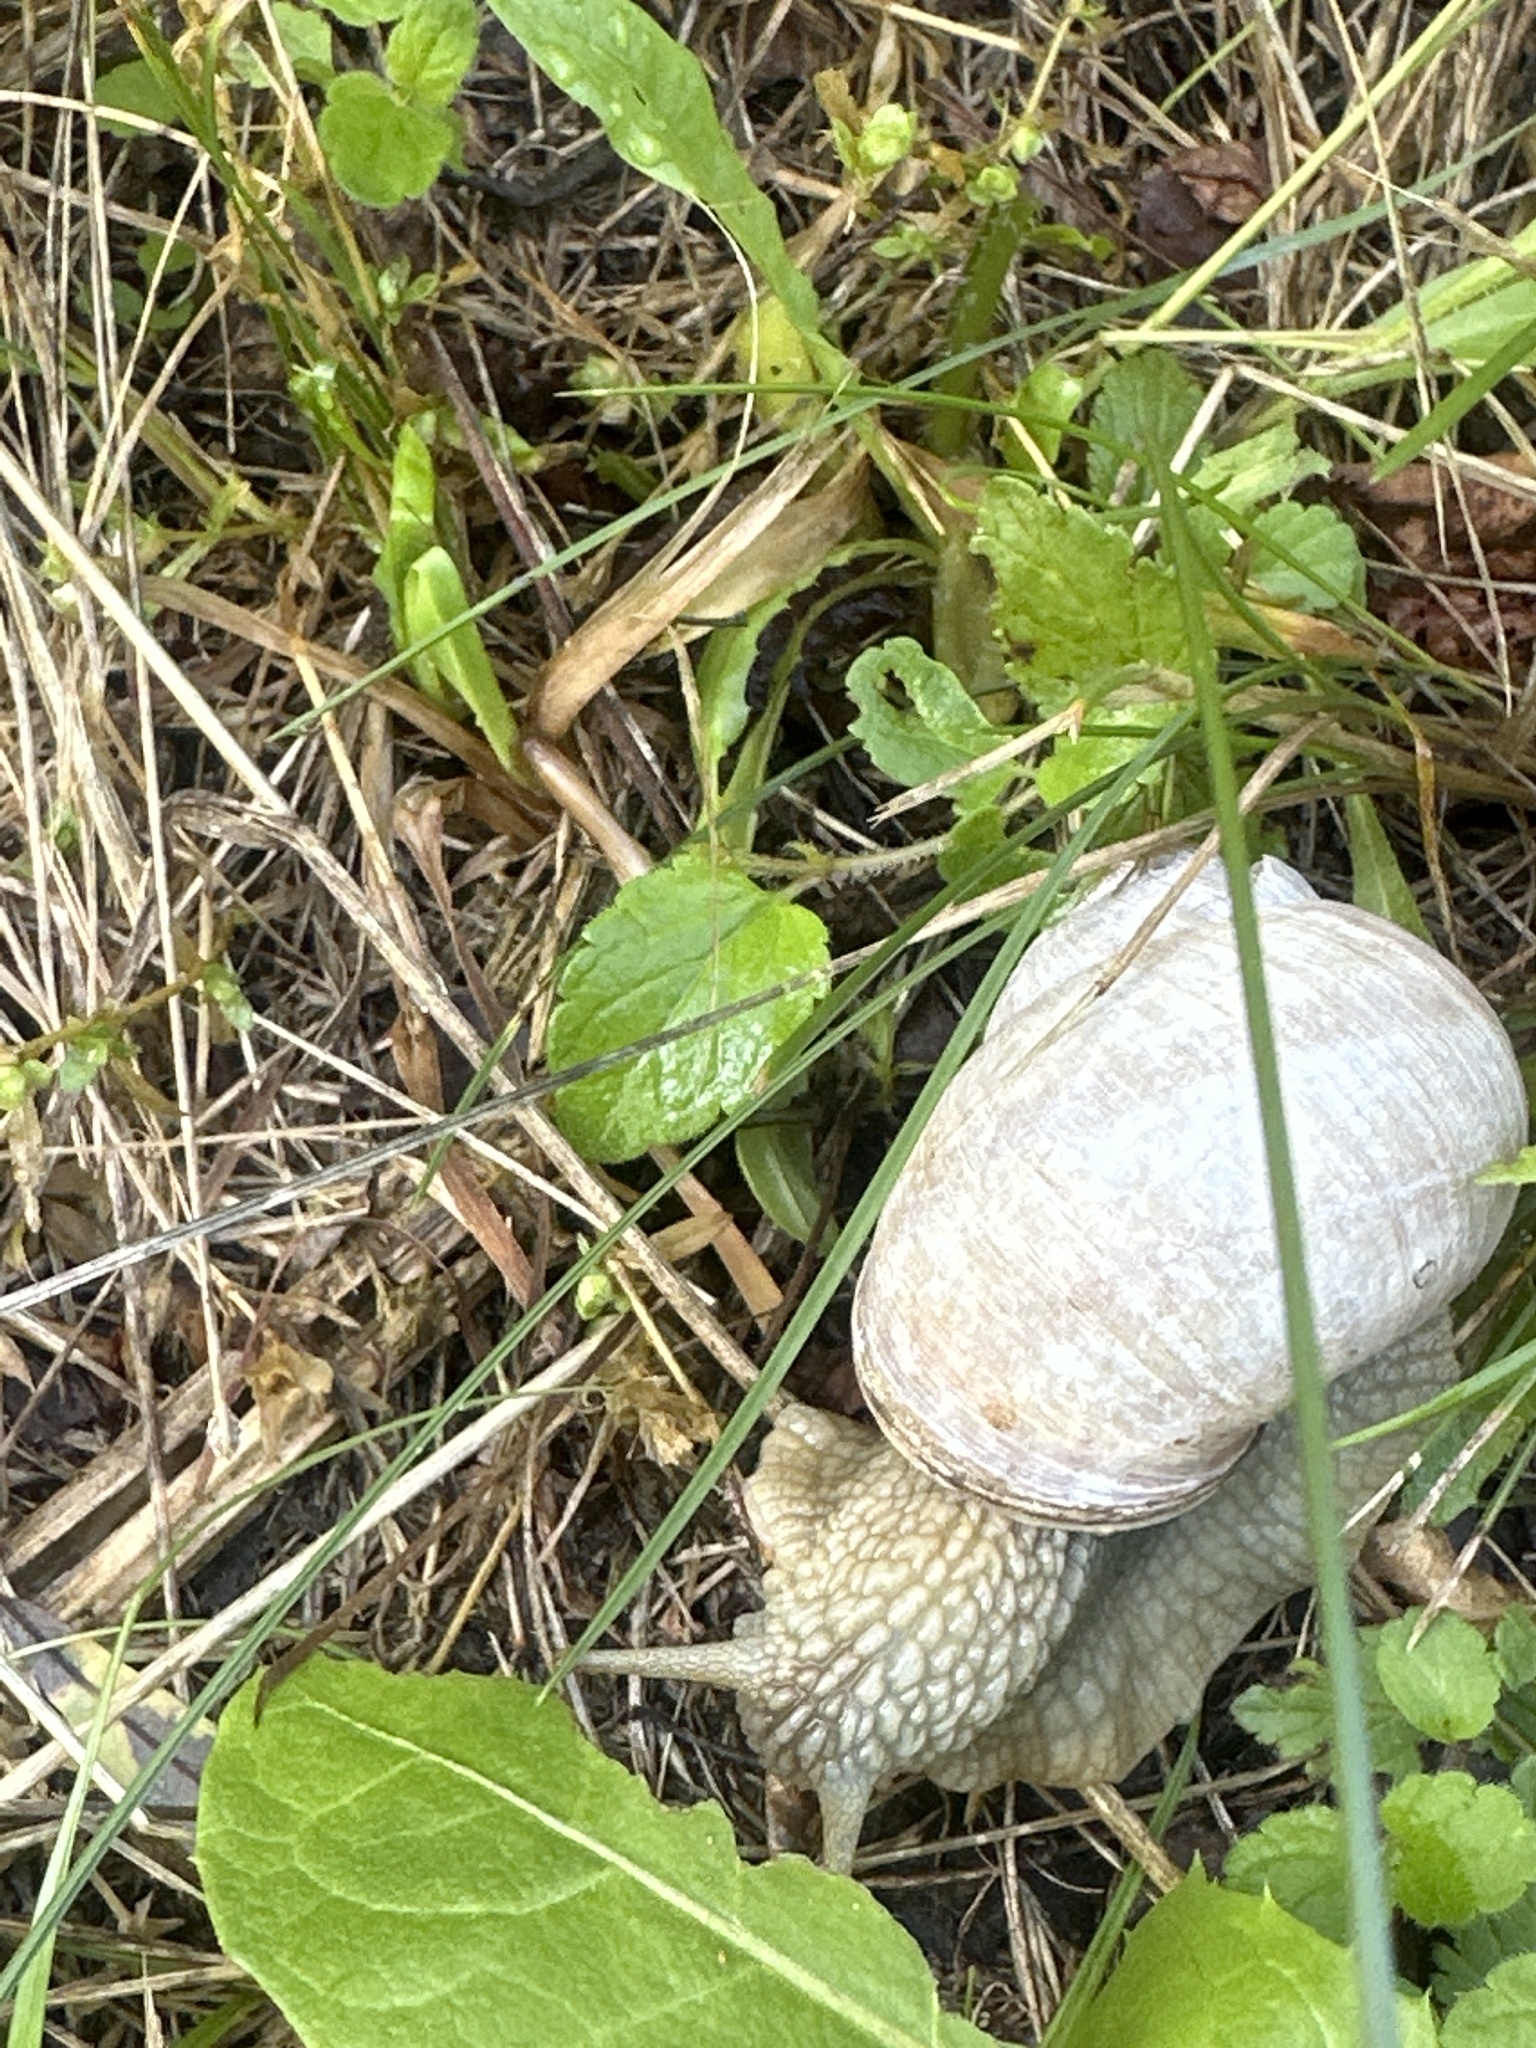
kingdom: Animalia
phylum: Mollusca
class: Gastropoda
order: Stylommatophora
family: Helicidae
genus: Helix
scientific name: Helix pomatia
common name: Roman snail
